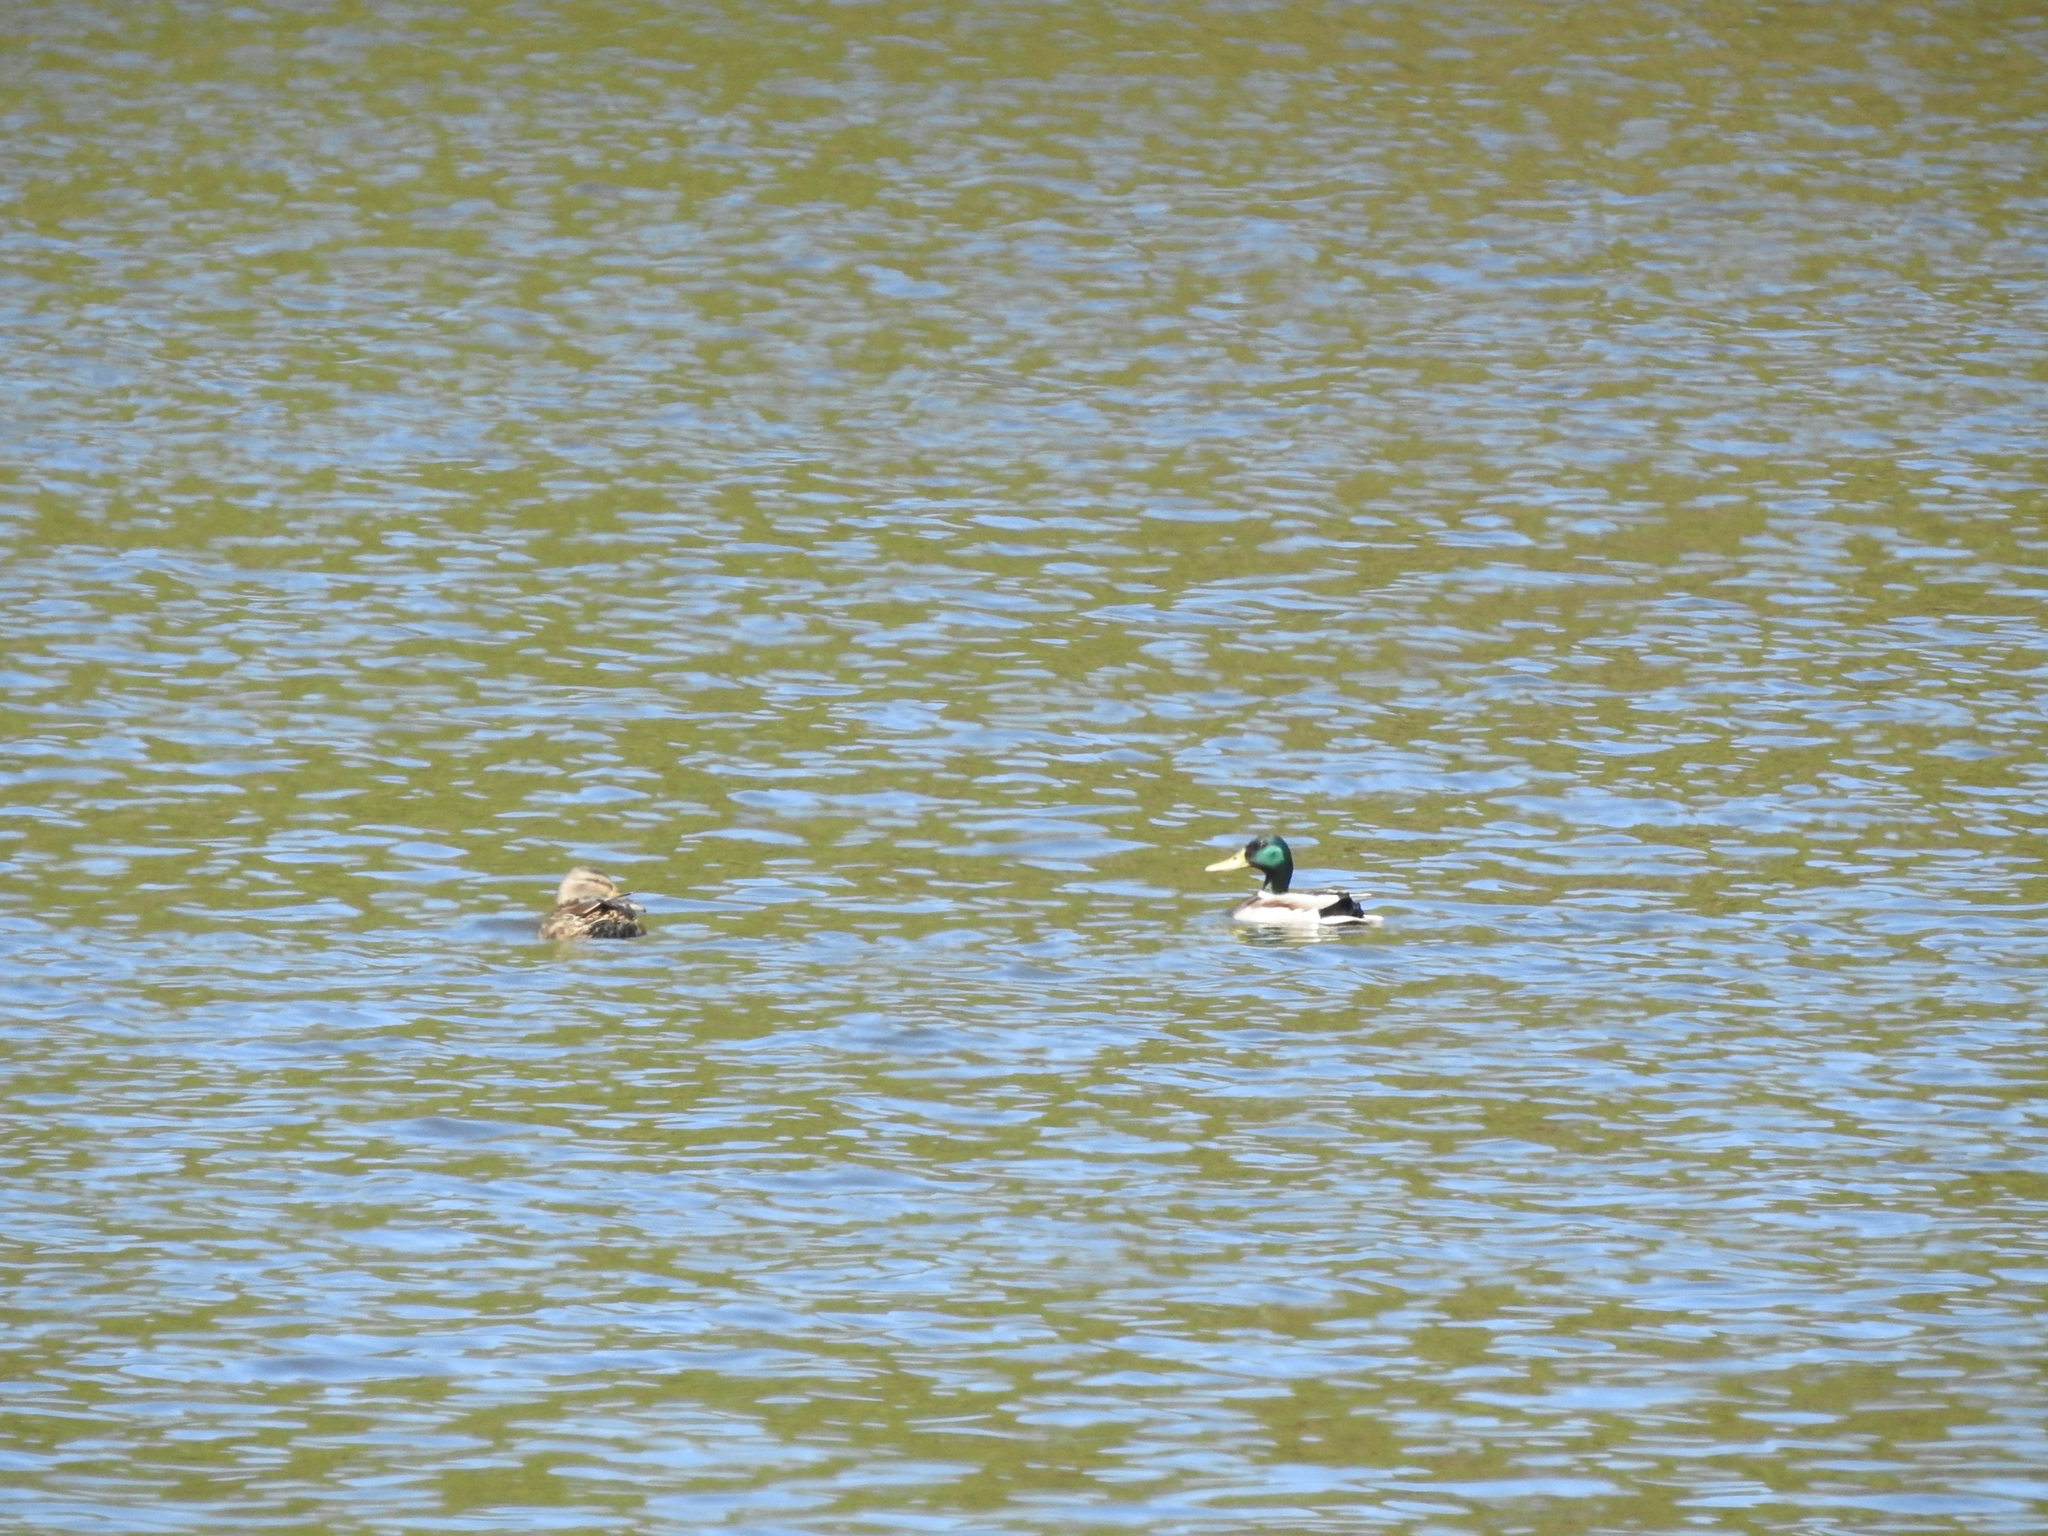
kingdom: Animalia
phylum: Chordata
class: Aves
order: Anseriformes
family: Anatidae
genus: Anas
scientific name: Anas platyrhynchos
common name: Mallard
